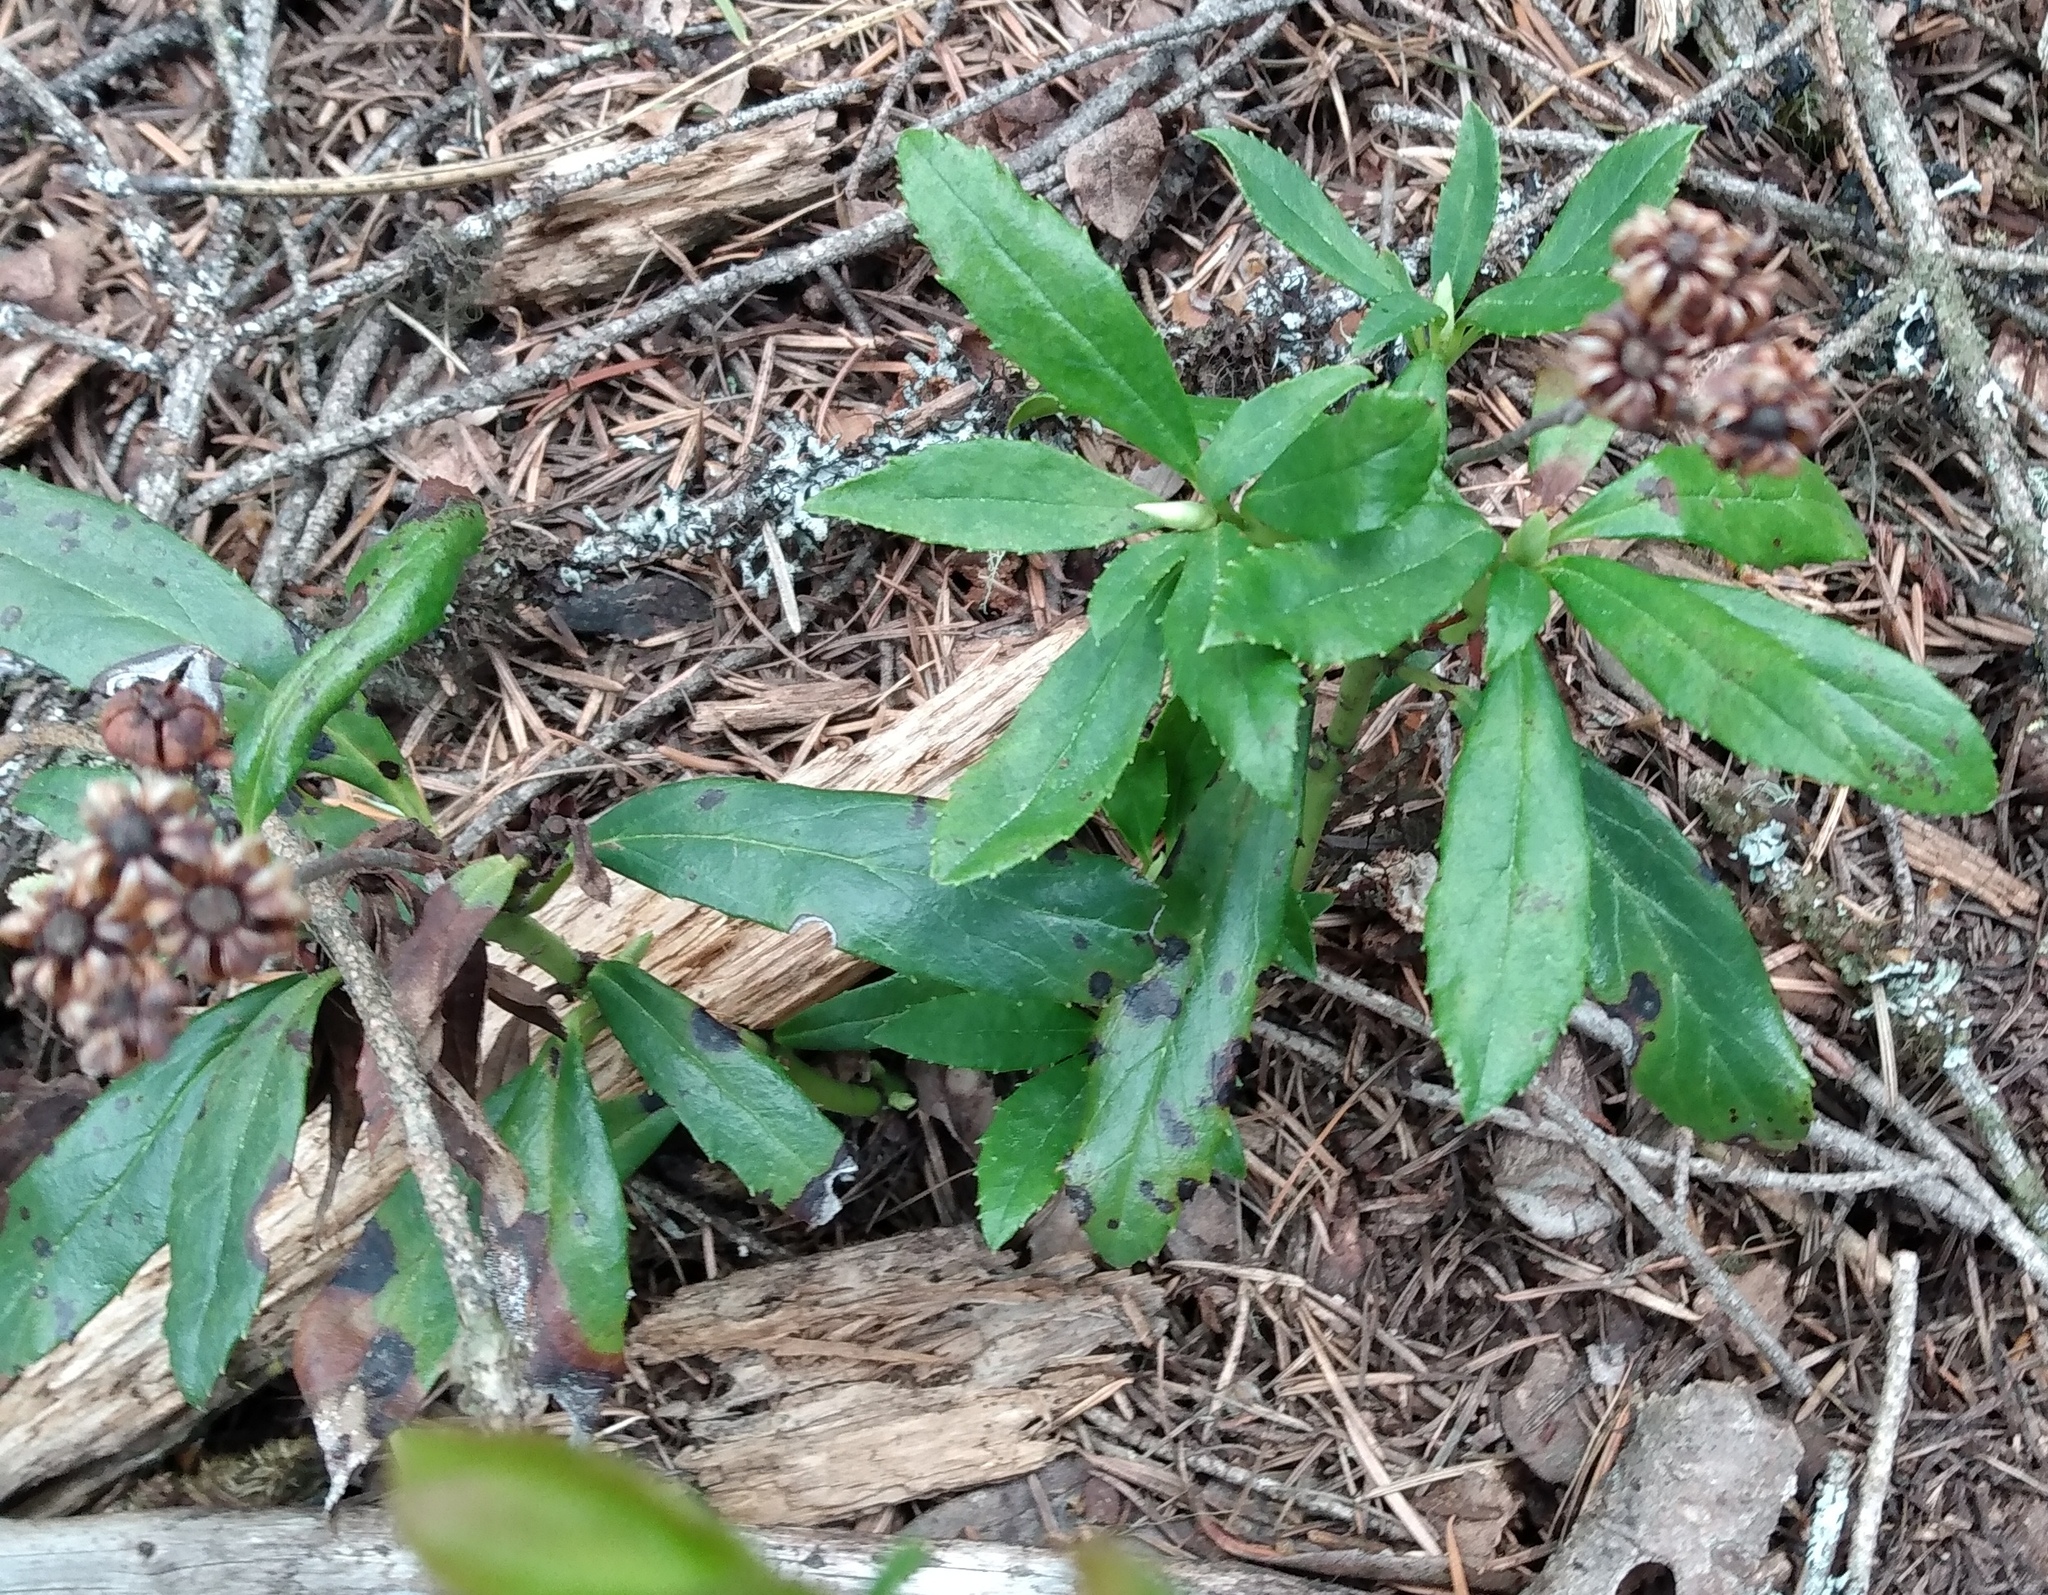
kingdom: Plantae
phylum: Tracheophyta
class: Magnoliopsida
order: Ericales
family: Ericaceae
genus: Chimaphila
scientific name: Chimaphila umbellata
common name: Pipsissewa
